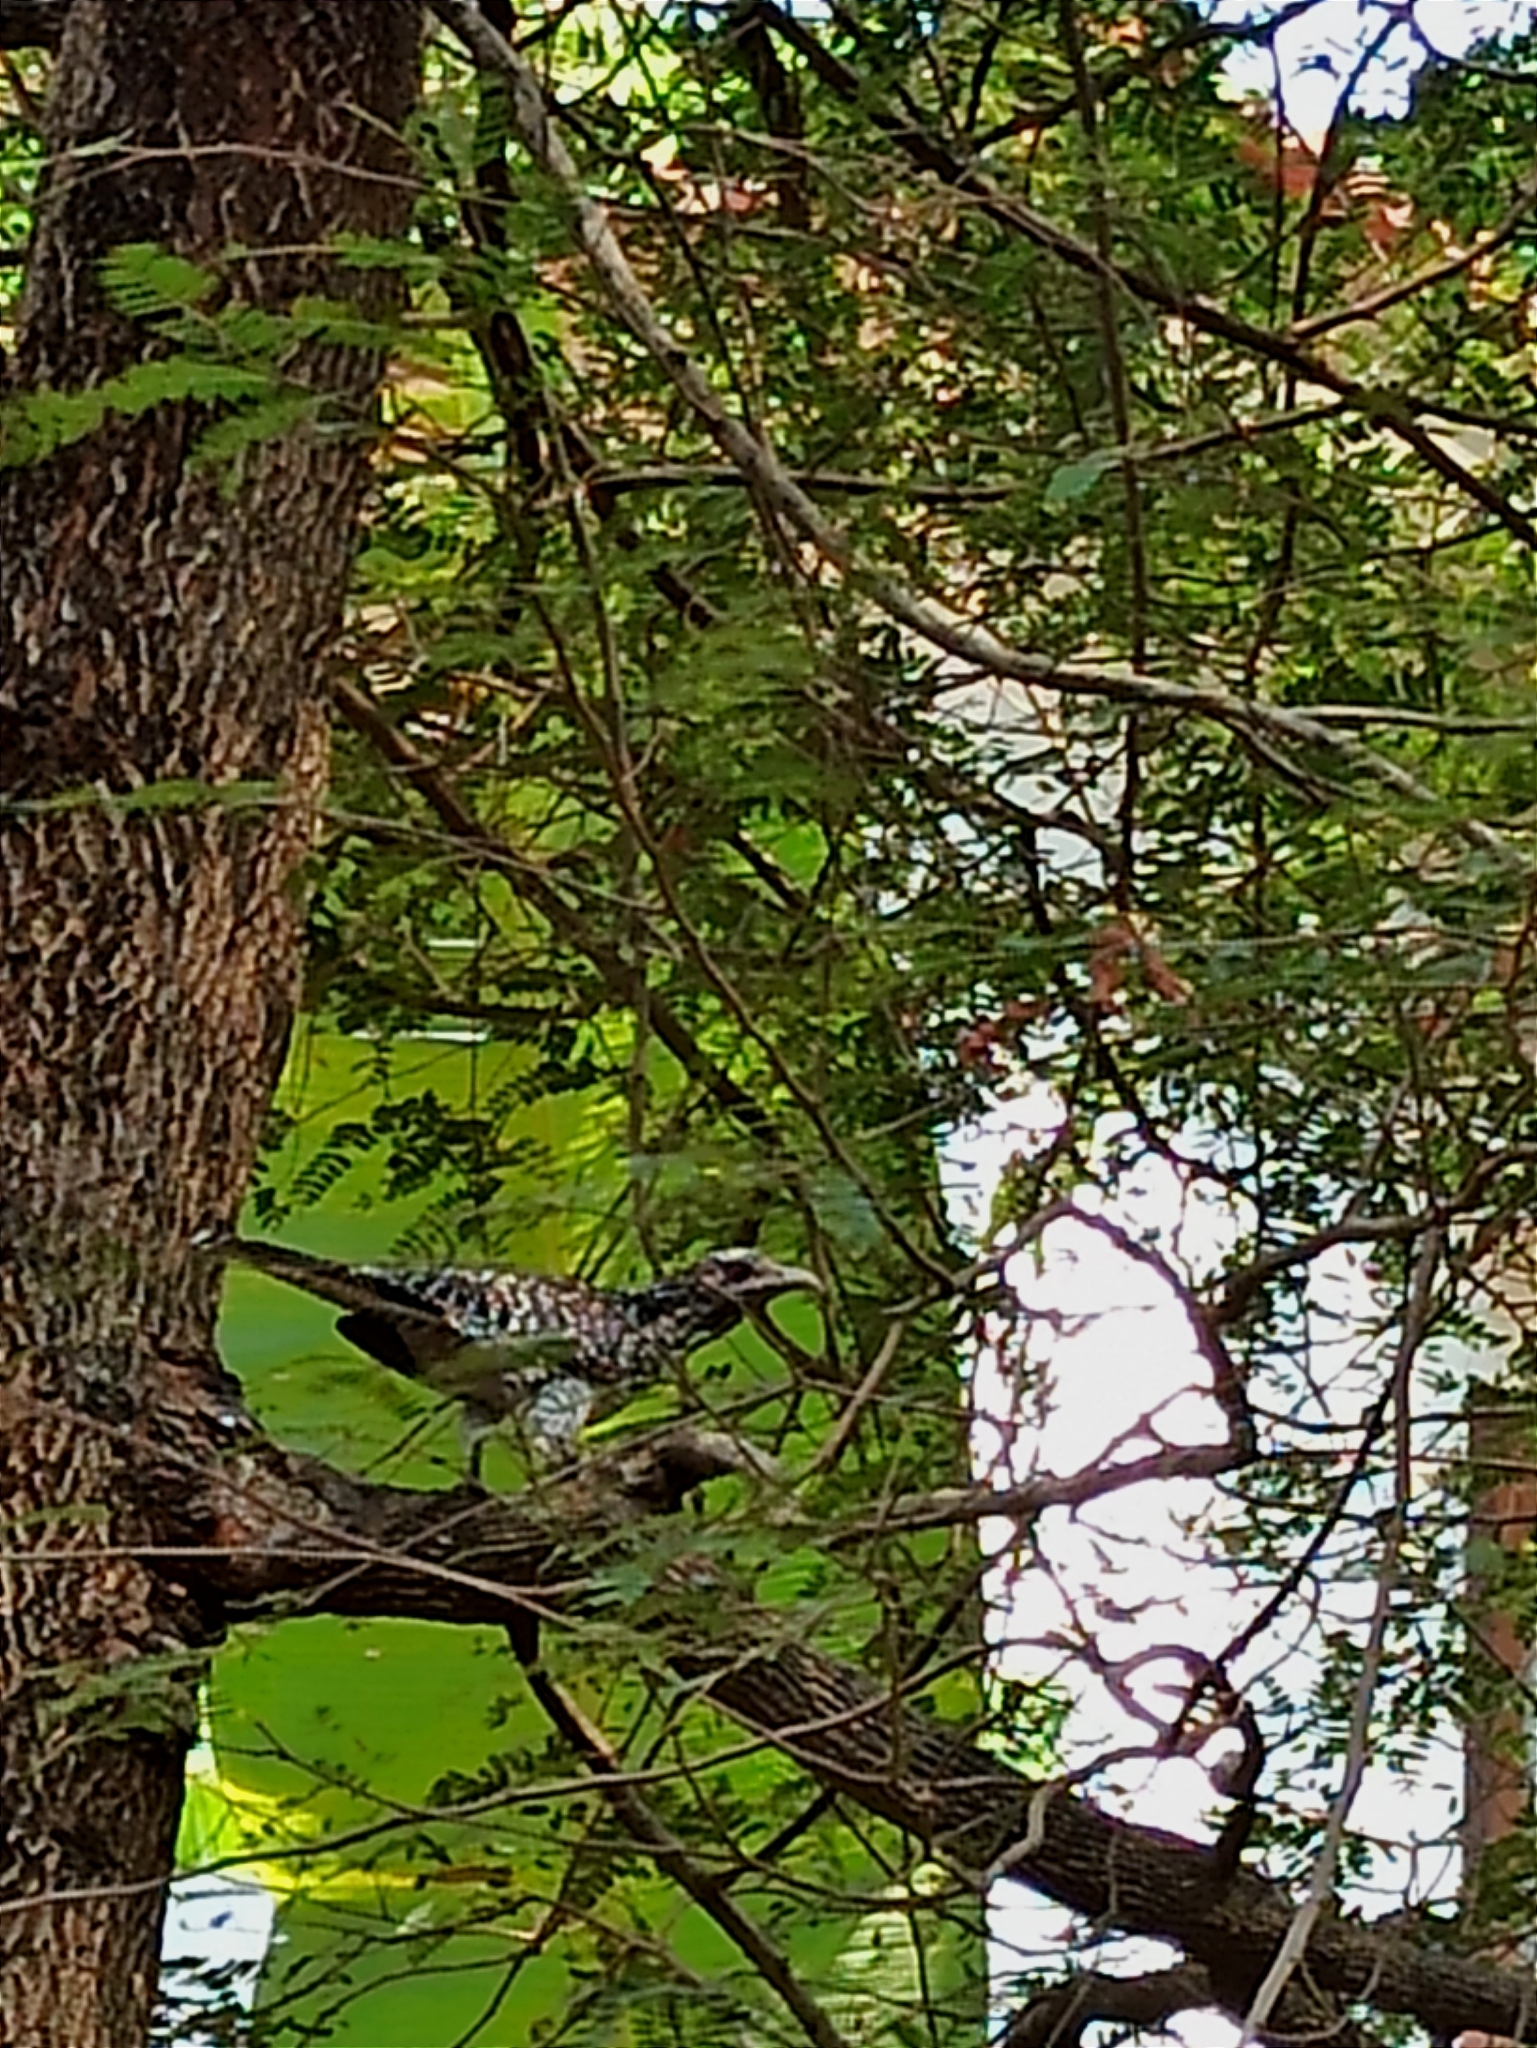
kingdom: Animalia
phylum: Chordata
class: Aves
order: Cuculiformes
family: Cuculidae
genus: Eudynamys
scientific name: Eudynamys scolopaceus
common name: Asian koel
